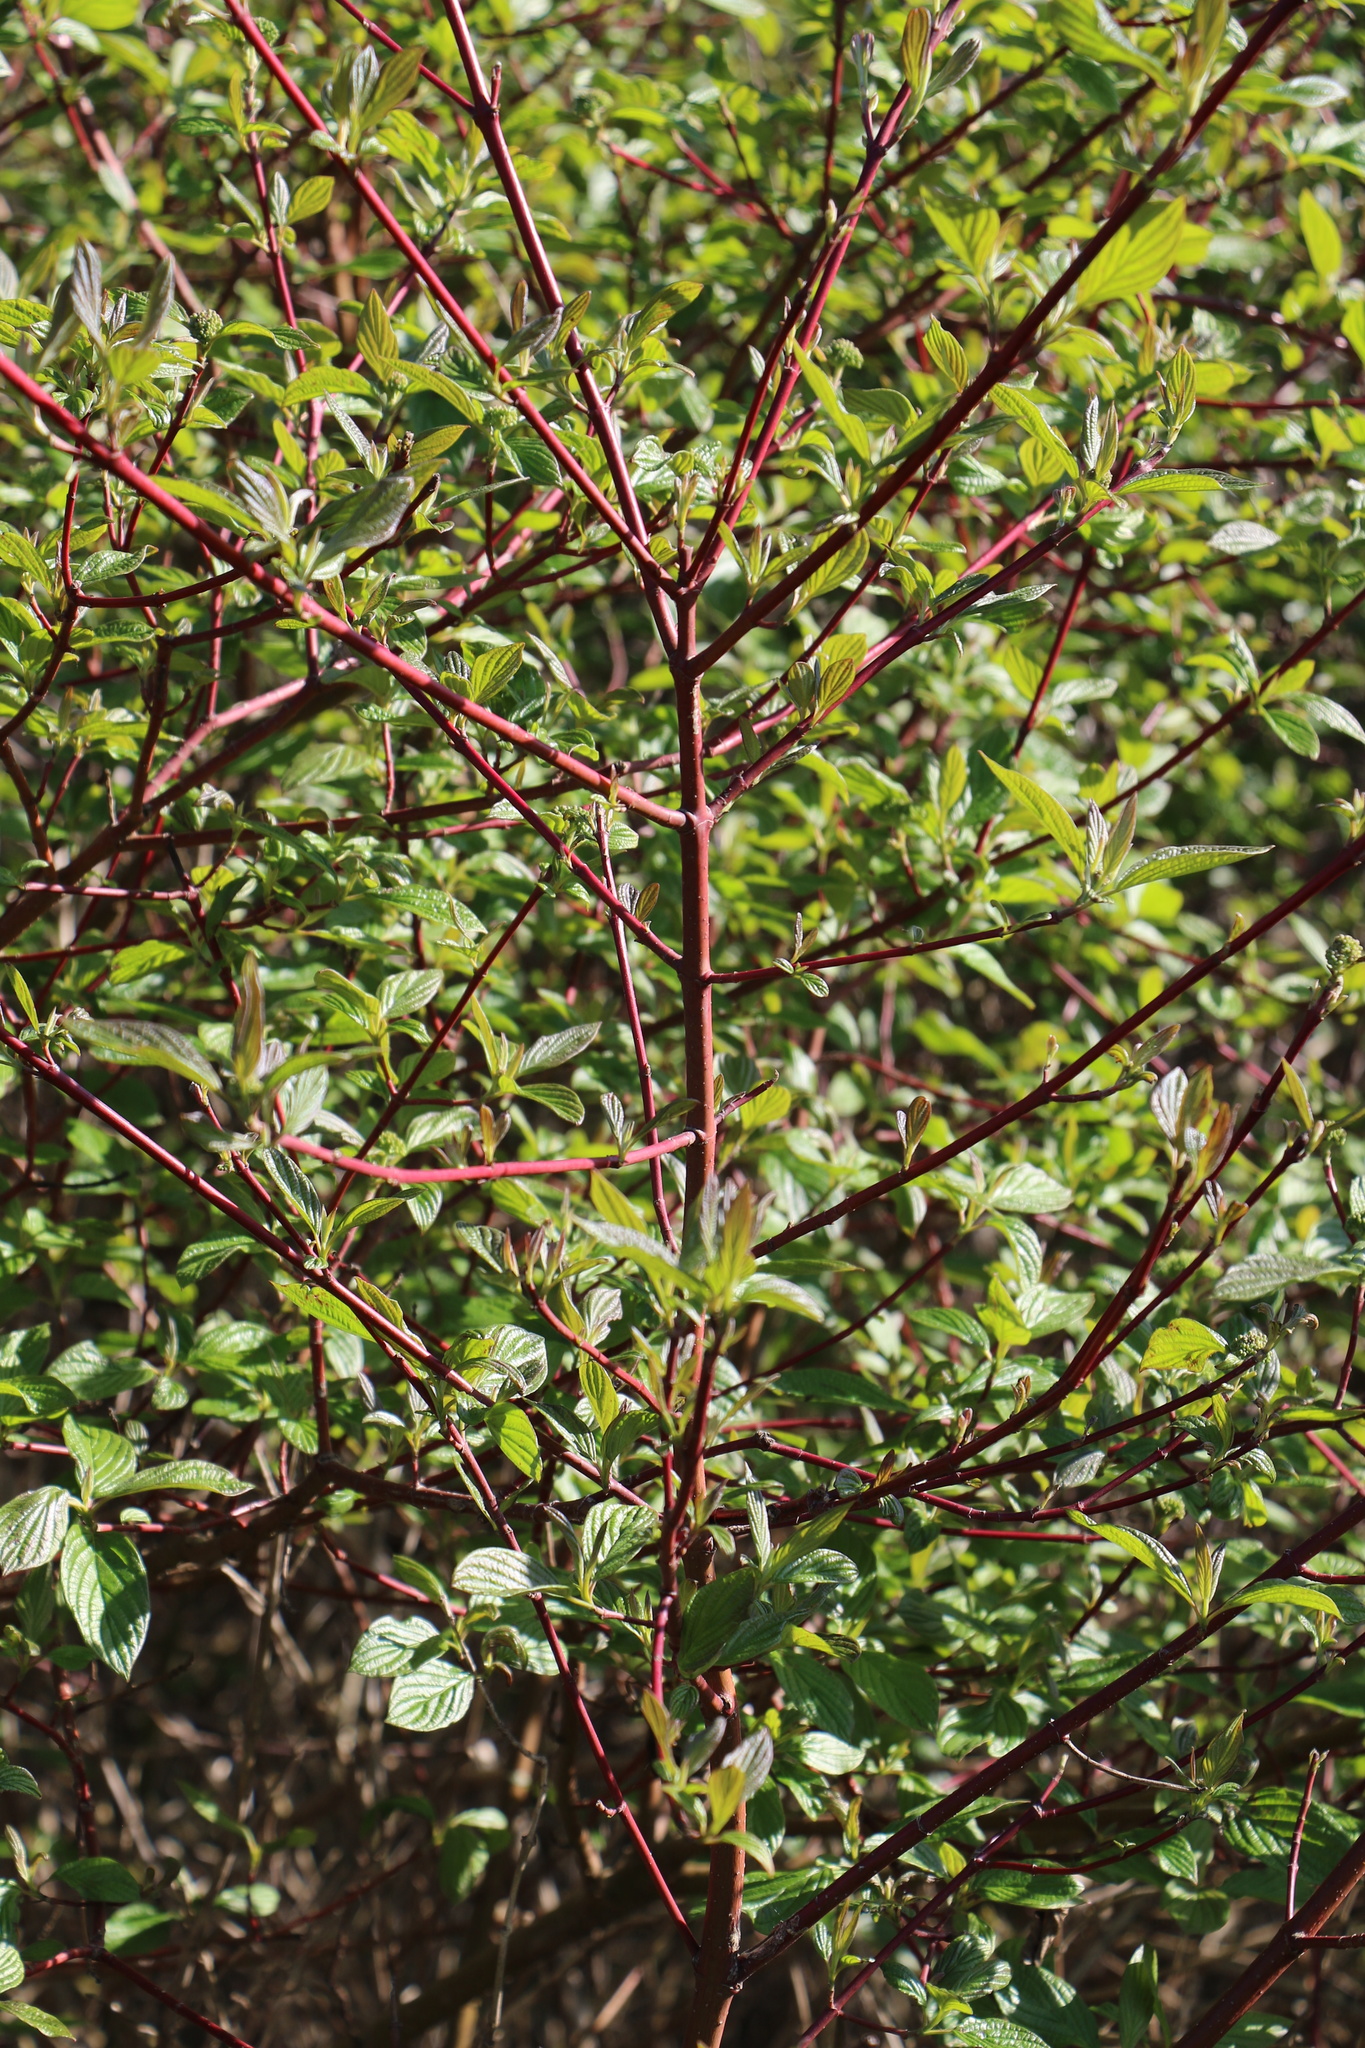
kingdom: Plantae
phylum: Tracheophyta
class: Magnoliopsida
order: Cornales
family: Cornaceae
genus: Cornus
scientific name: Cornus sericea
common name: Red-osier dogwood
